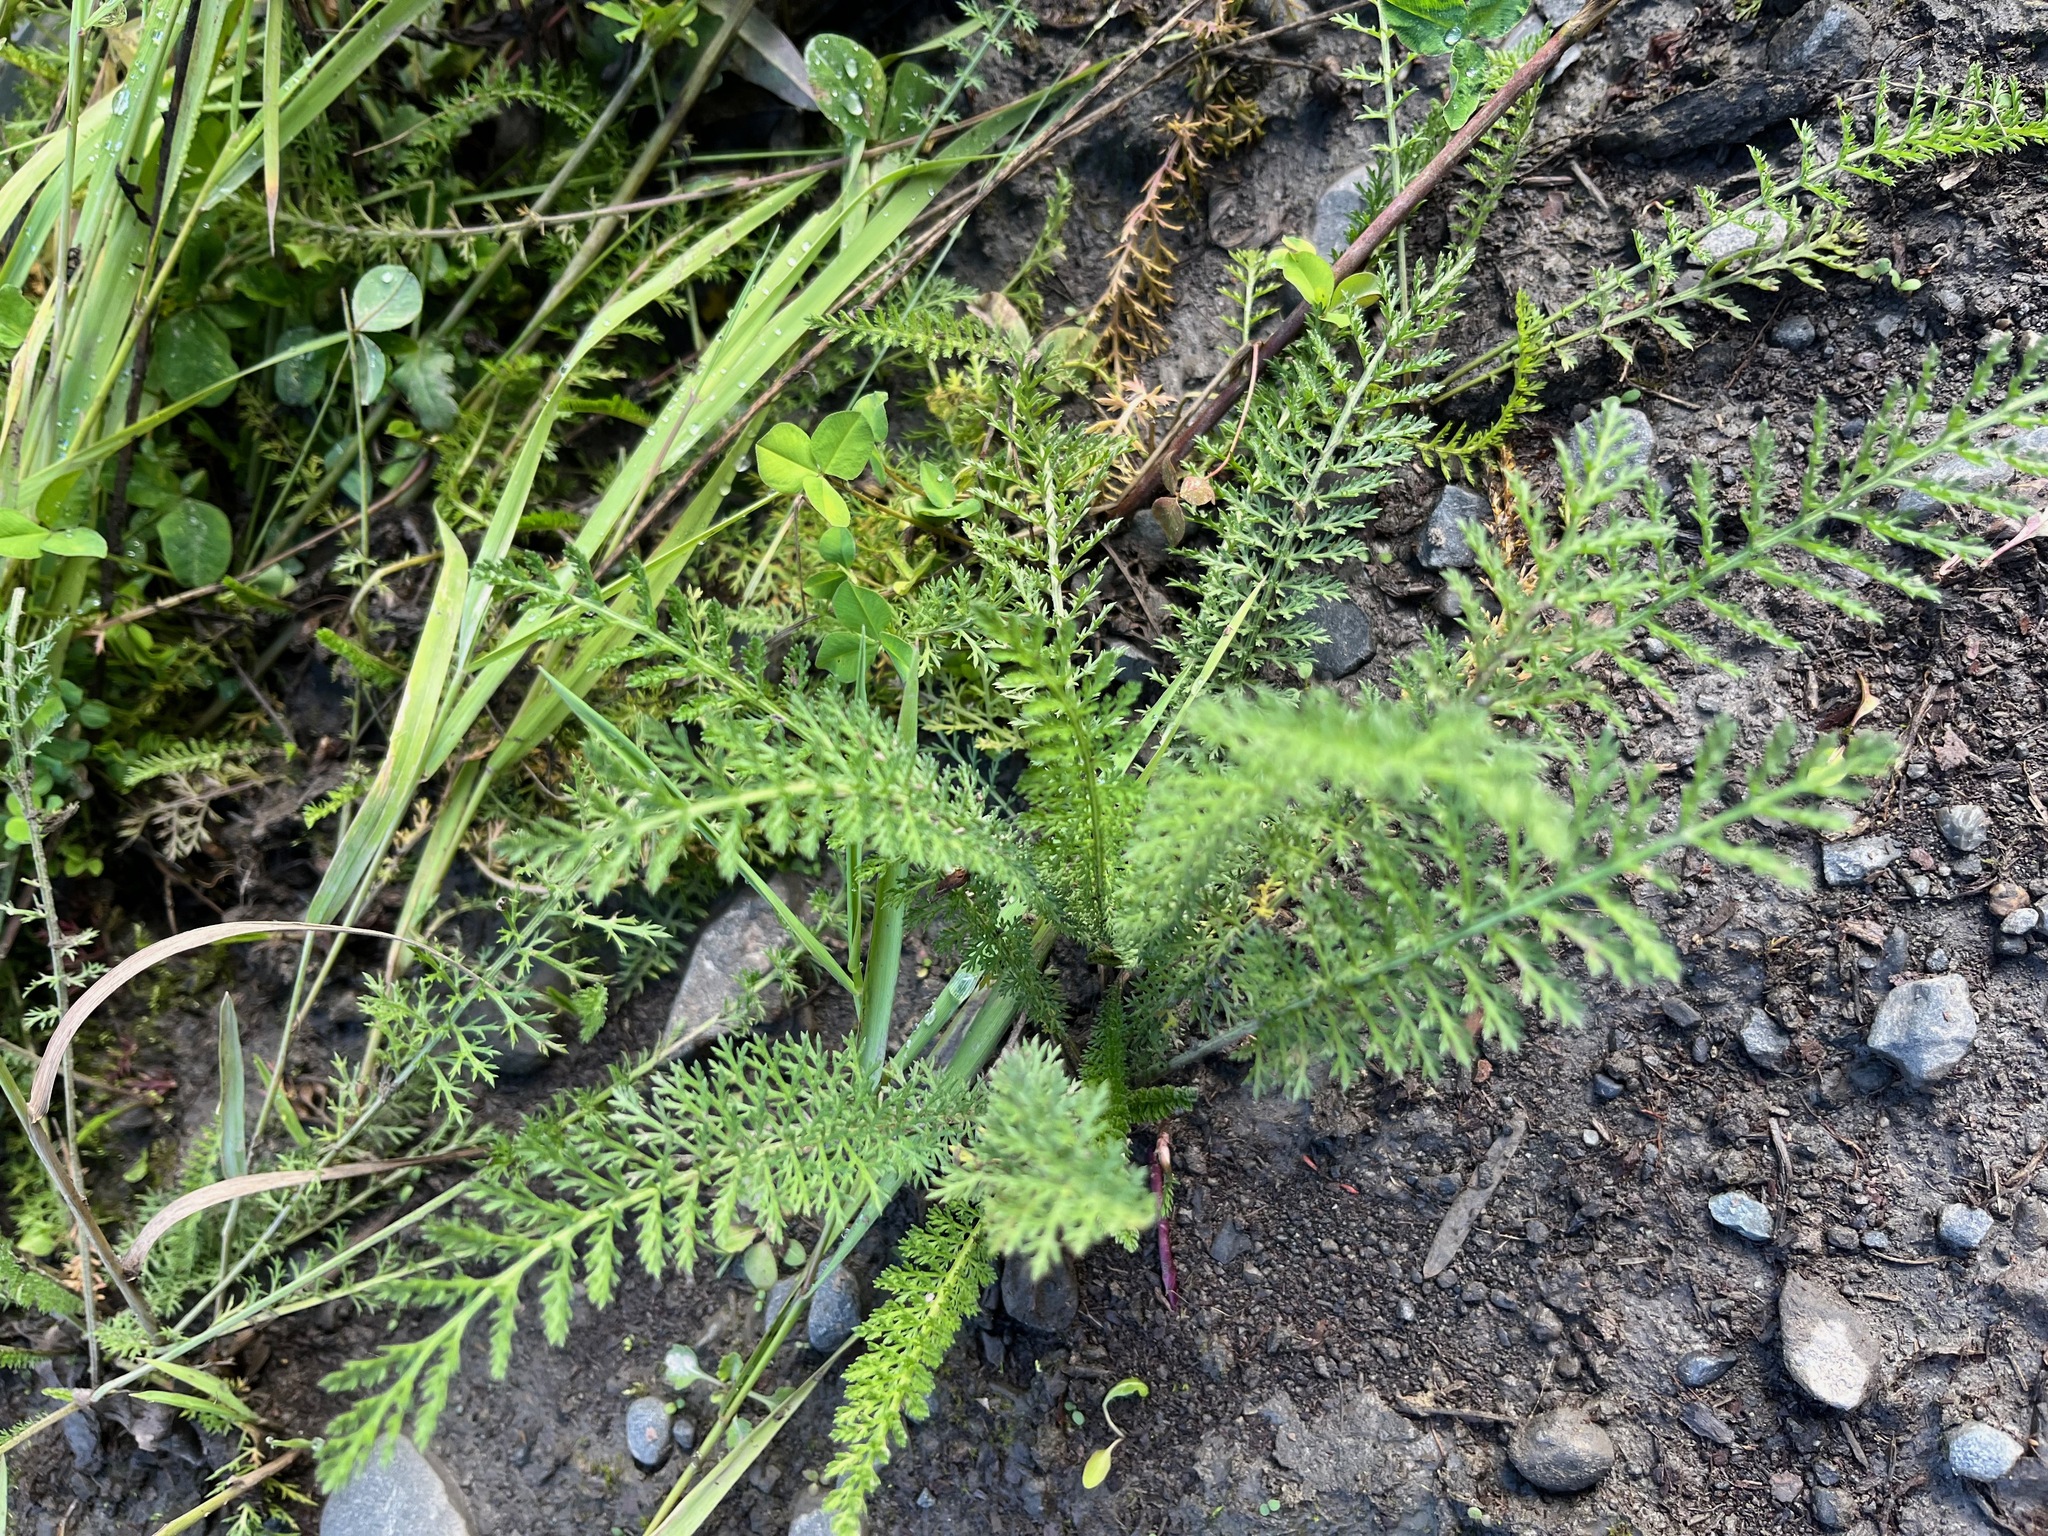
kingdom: Plantae
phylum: Tracheophyta
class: Magnoliopsida
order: Asterales
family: Asteraceae
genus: Achillea
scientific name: Achillea millefolium
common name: Yarrow
